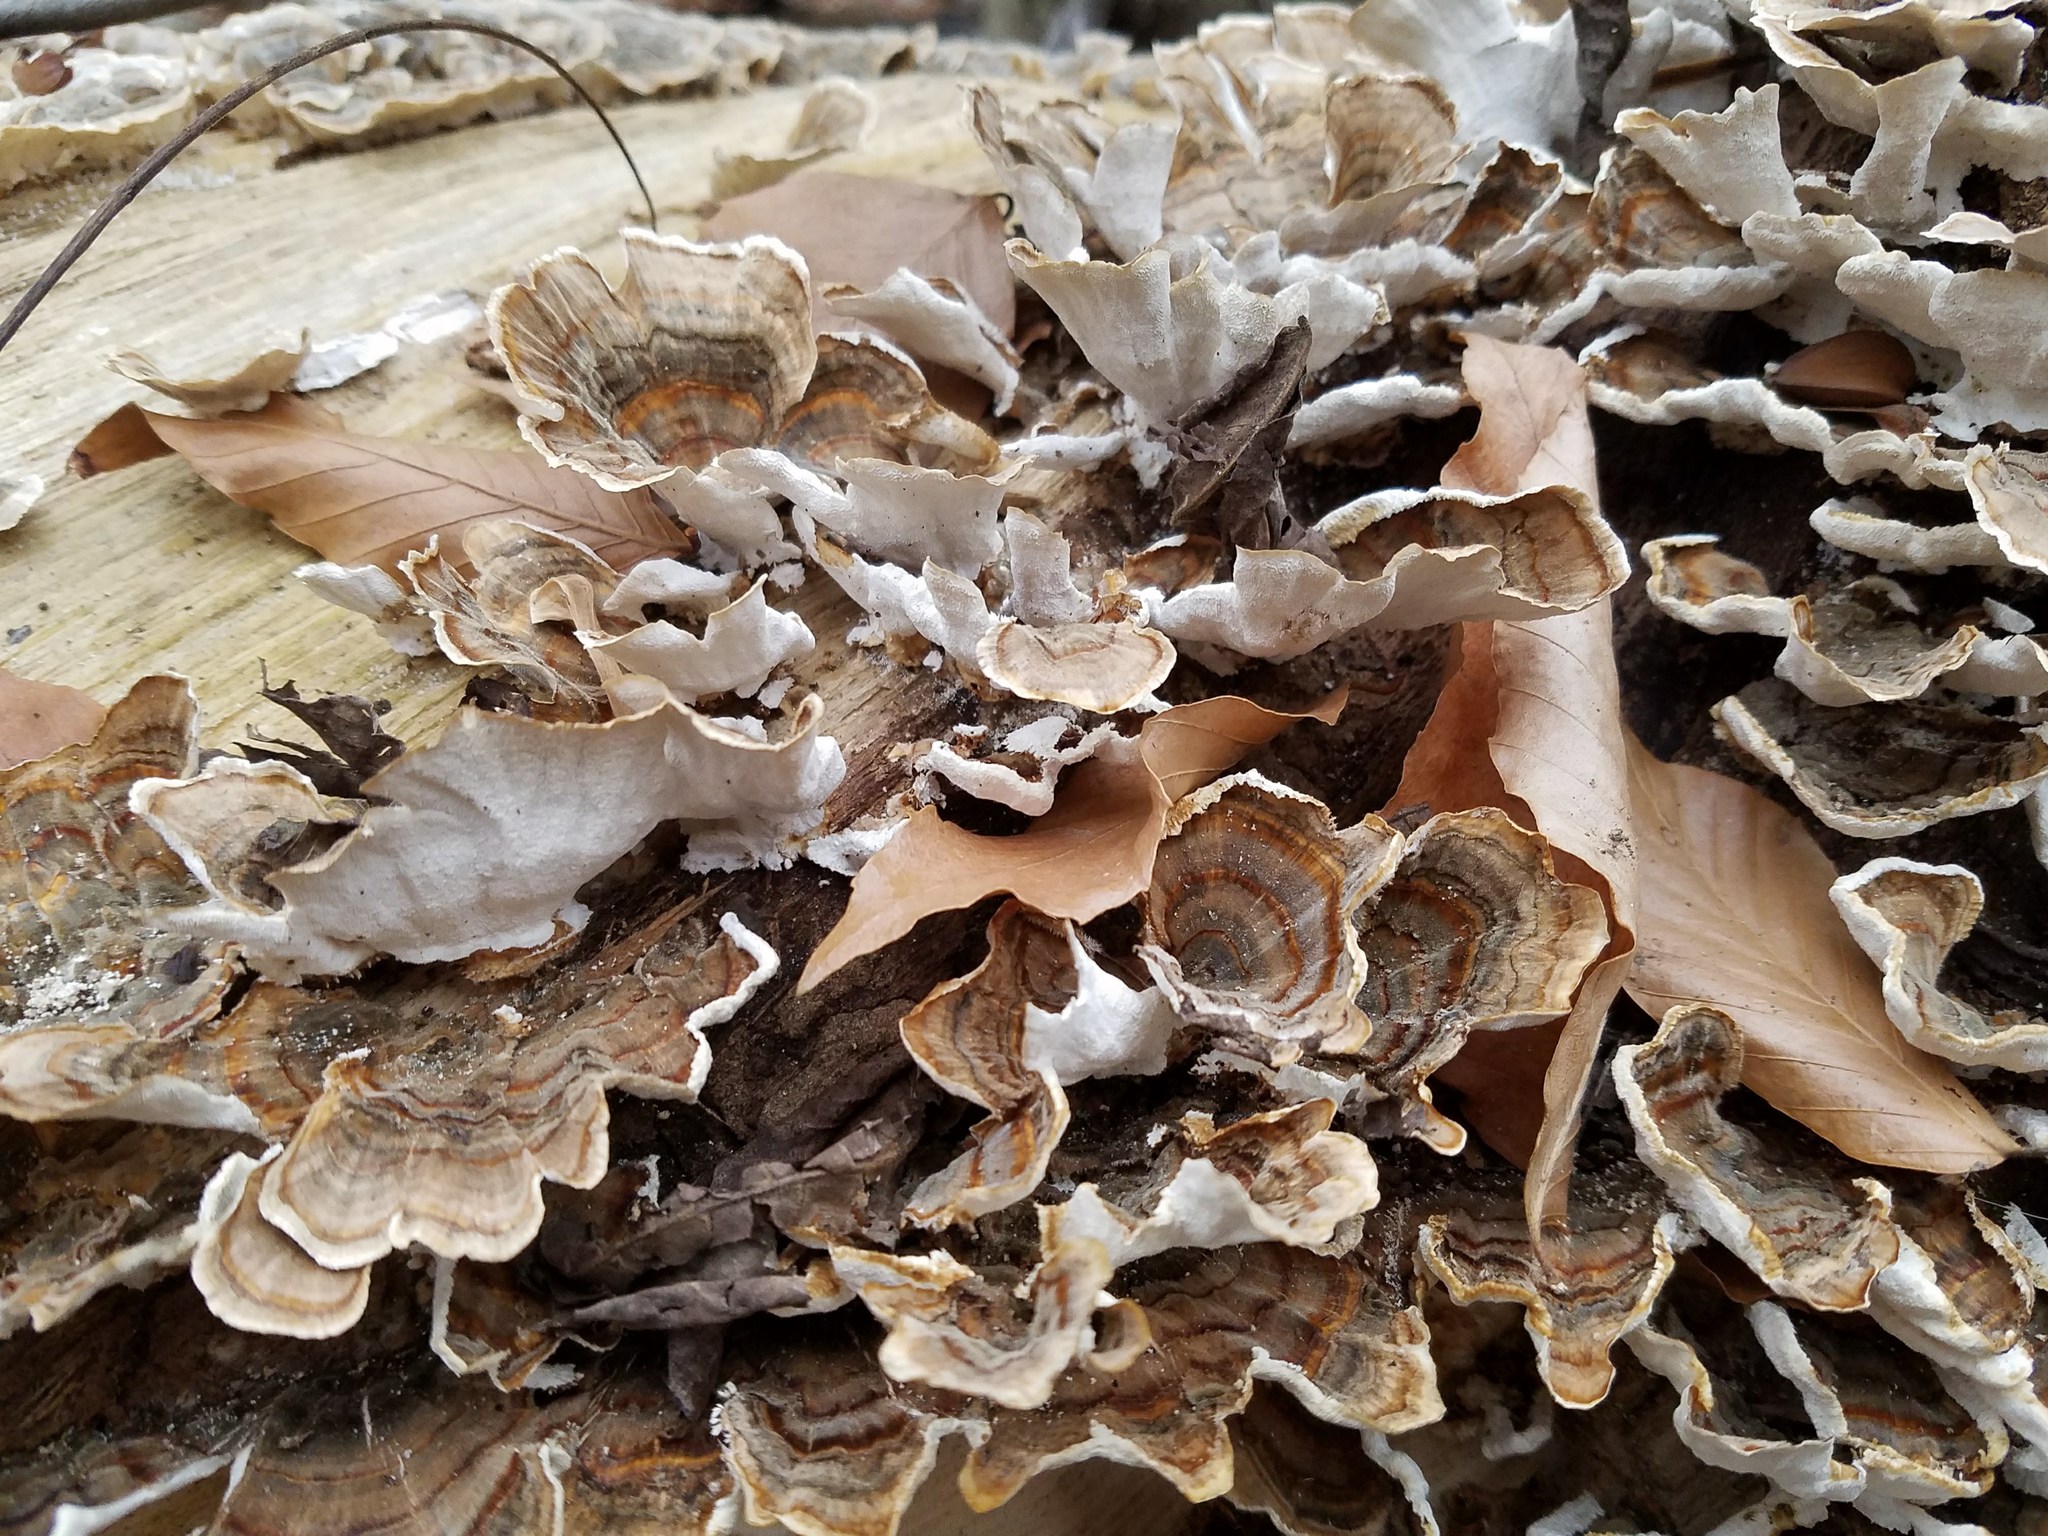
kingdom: Fungi
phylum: Basidiomycota
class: Agaricomycetes
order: Polyporales
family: Polyporaceae
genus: Trametes
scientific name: Trametes versicolor
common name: Turkeytail
